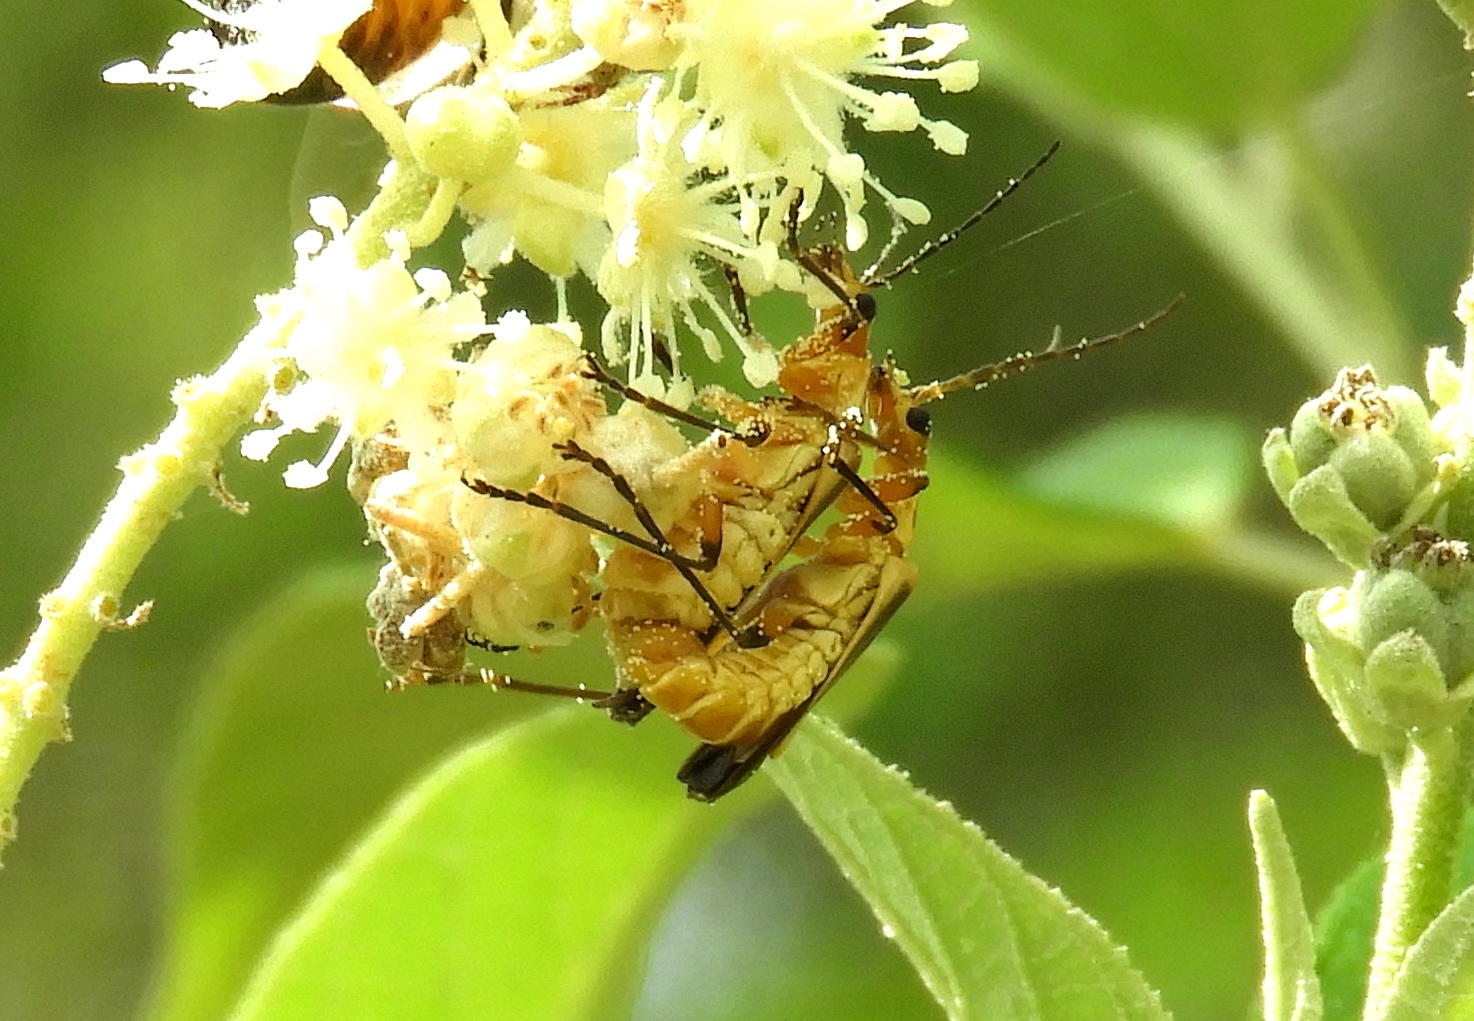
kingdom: Animalia
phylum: Arthropoda
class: Insecta
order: Coleoptera
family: Cantharidae
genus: Chauliognathus
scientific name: Chauliognathus
